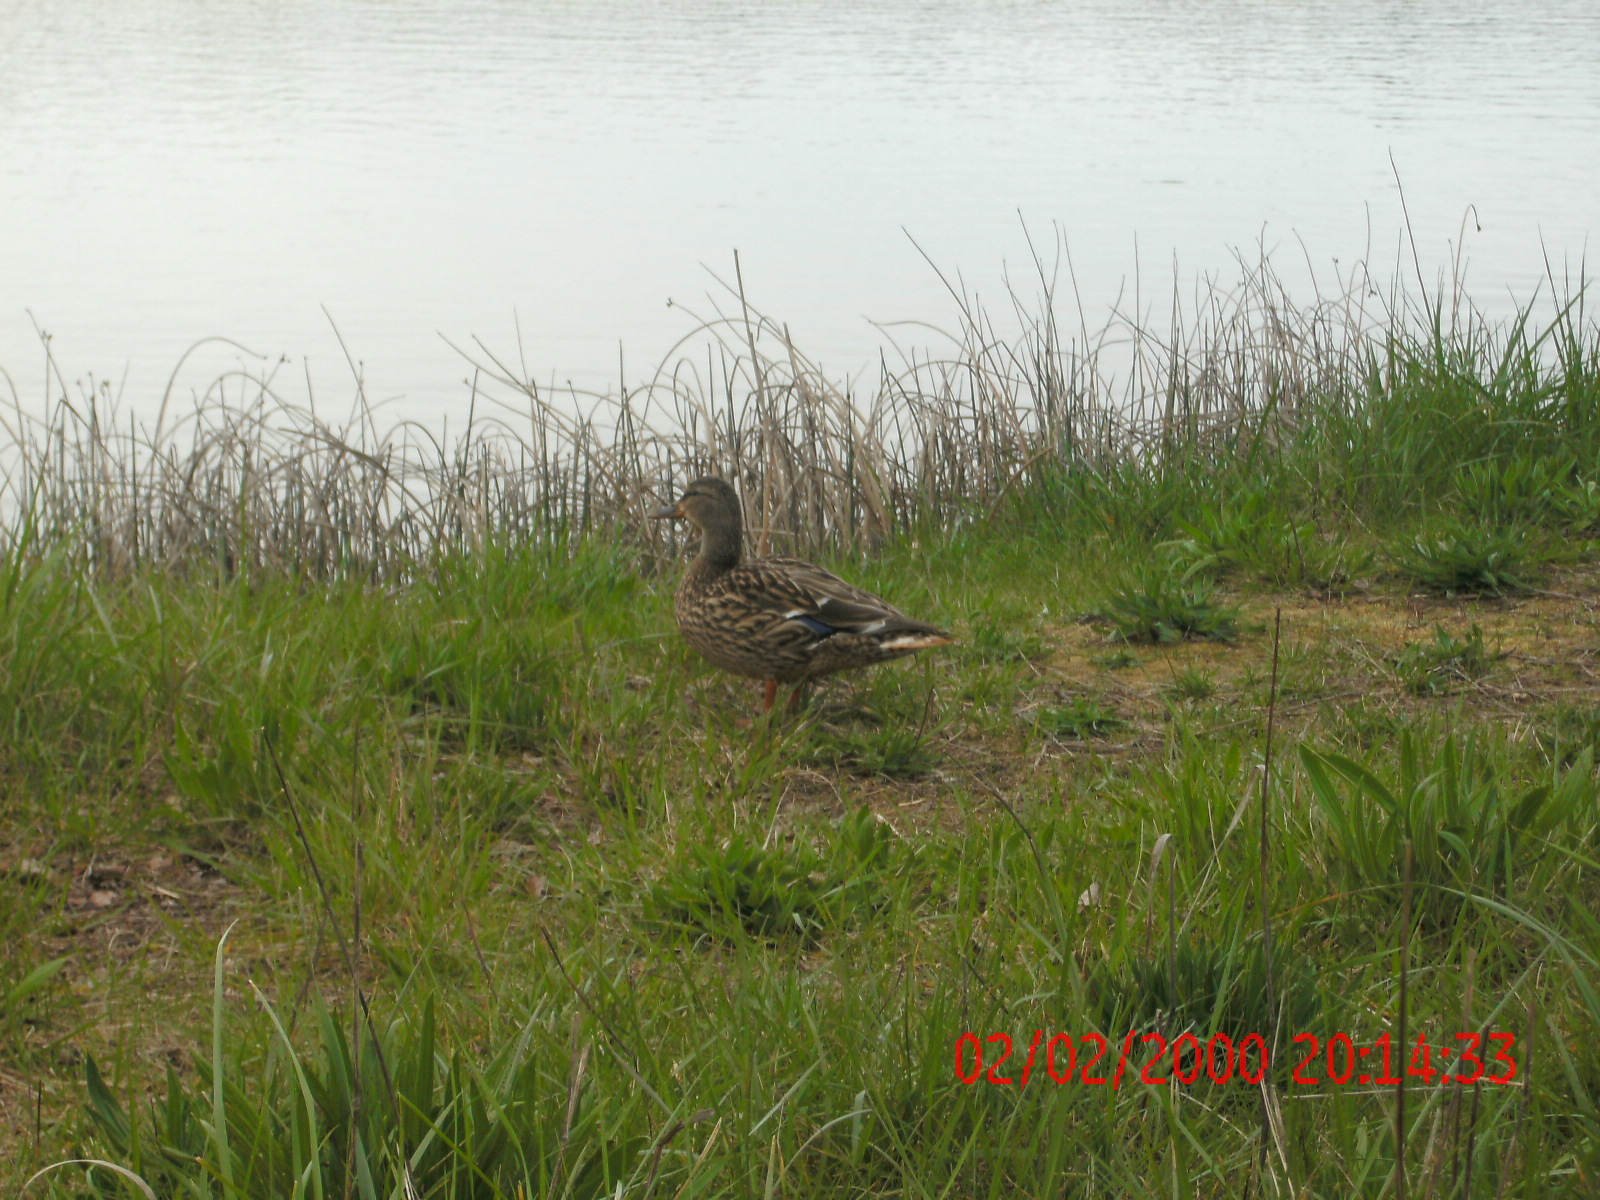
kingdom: Animalia
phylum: Chordata
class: Aves
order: Anseriformes
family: Anatidae
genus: Anas
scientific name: Anas platyrhynchos
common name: Mallard
